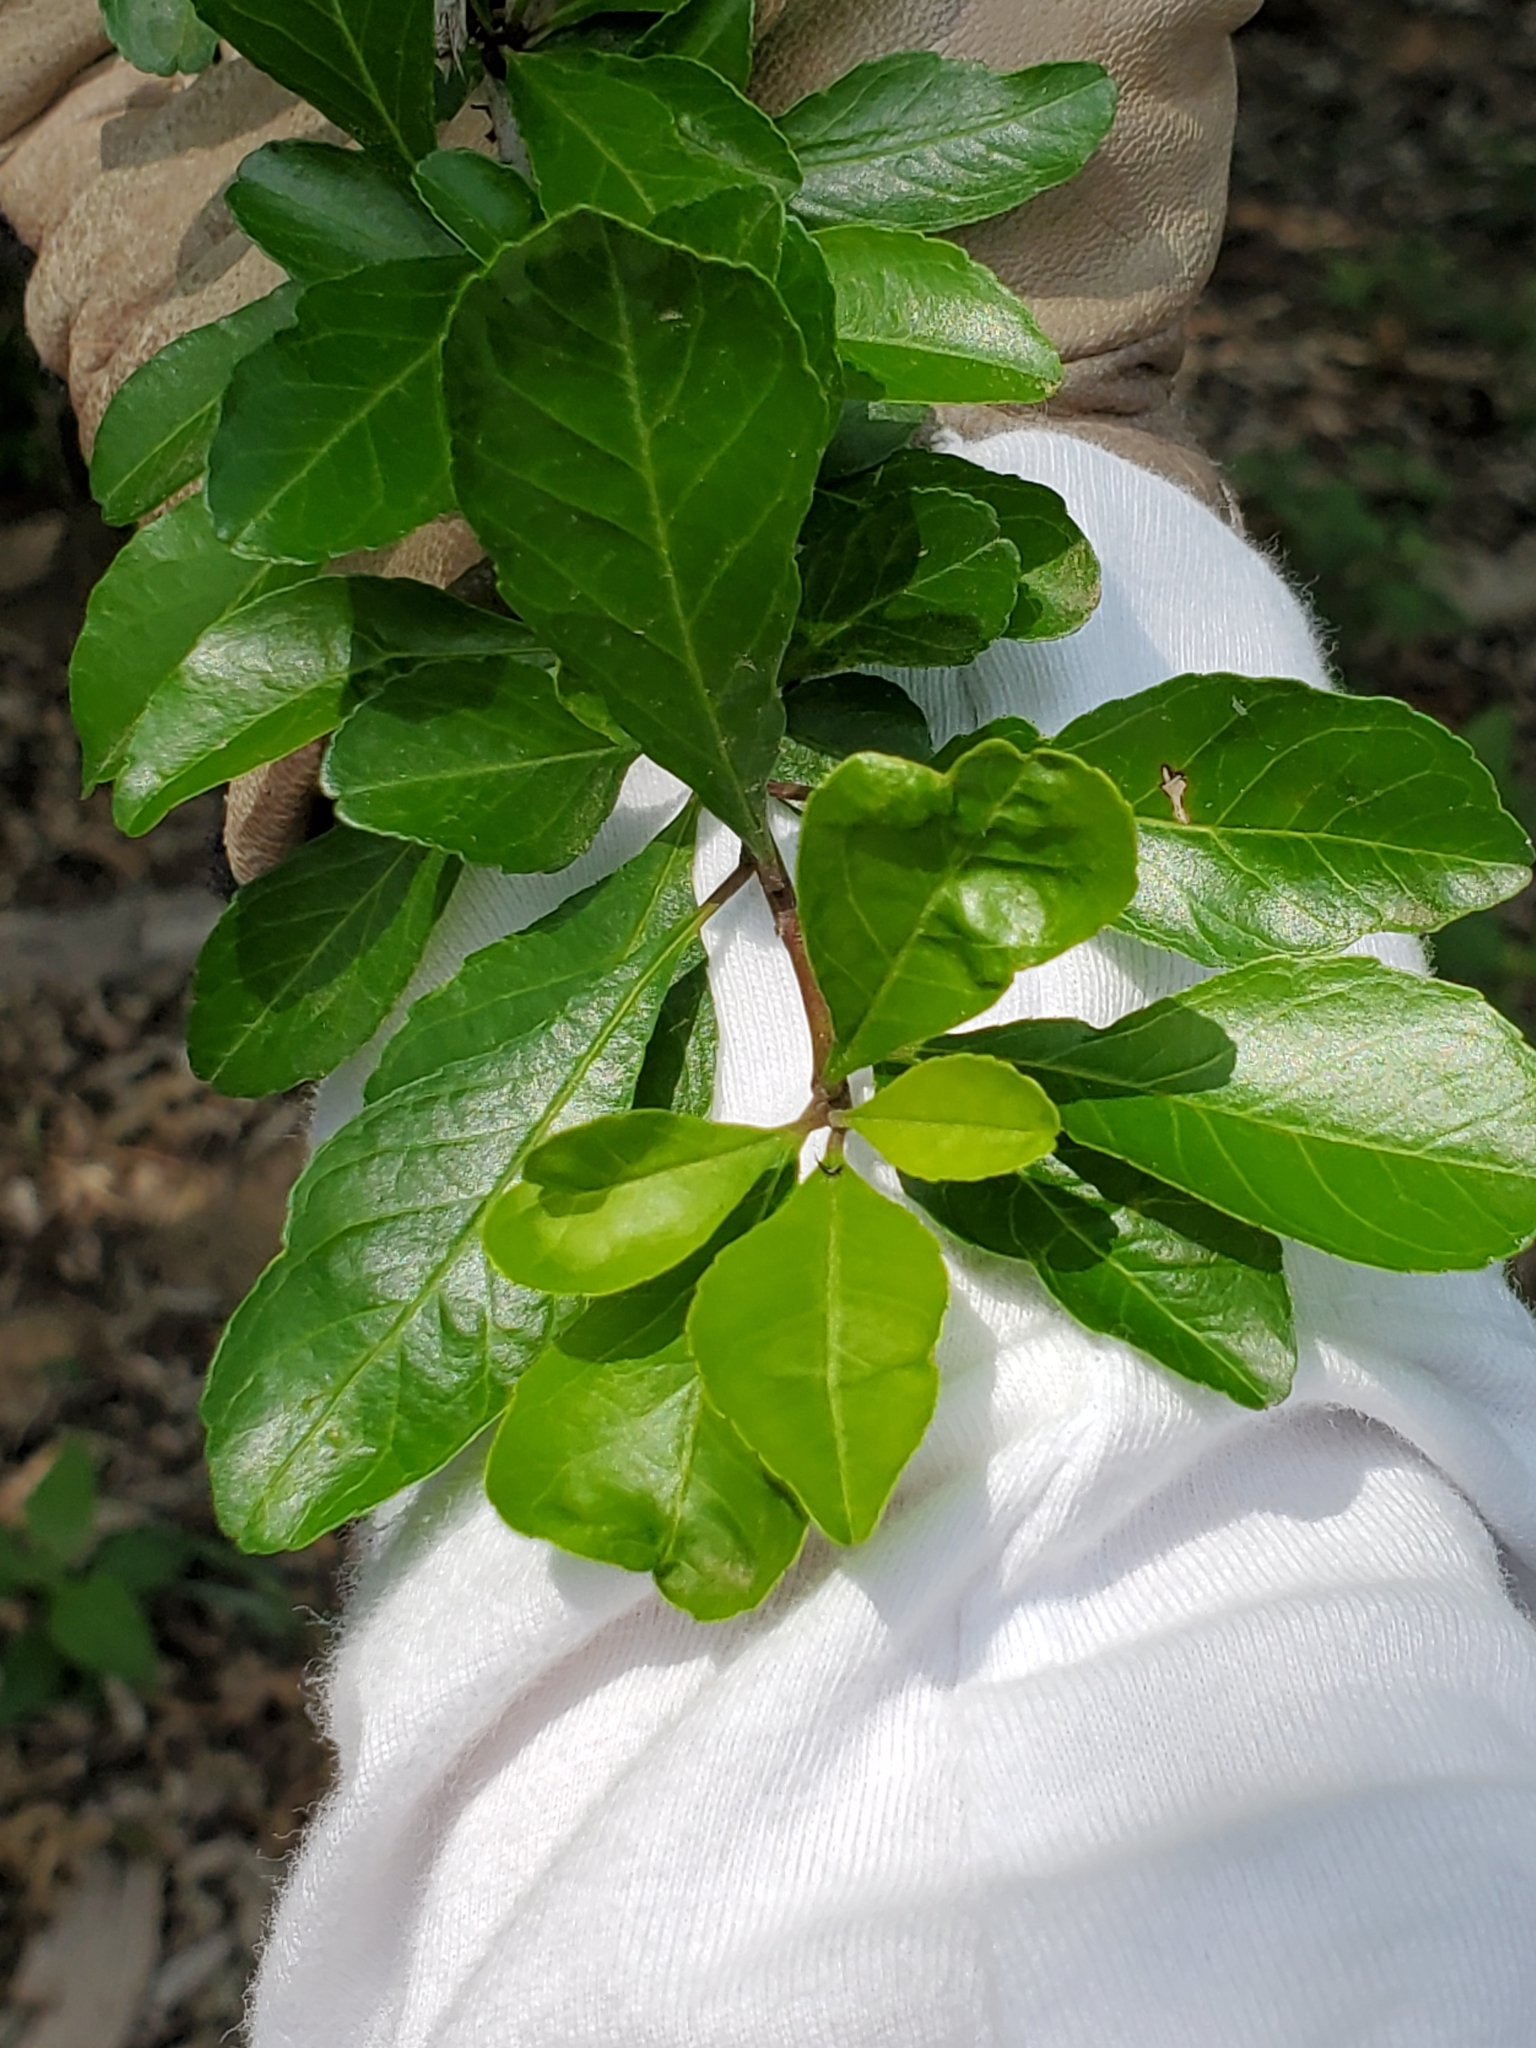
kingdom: Plantae
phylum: Tracheophyta
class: Magnoliopsida
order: Aquifoliales
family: Aquifoliaceae
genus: Ilex
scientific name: Ilex decidua
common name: Possum-haw
